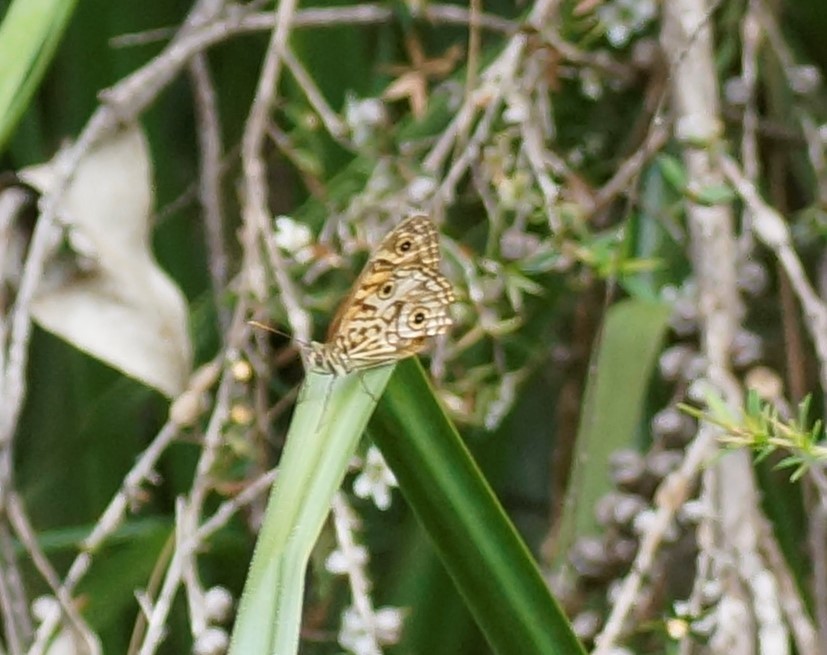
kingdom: Animalia
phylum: Arthropoda
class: Insecta
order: Lepidoptera
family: Nymphalidae
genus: Geitoneura
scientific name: Geitoneura acantha
